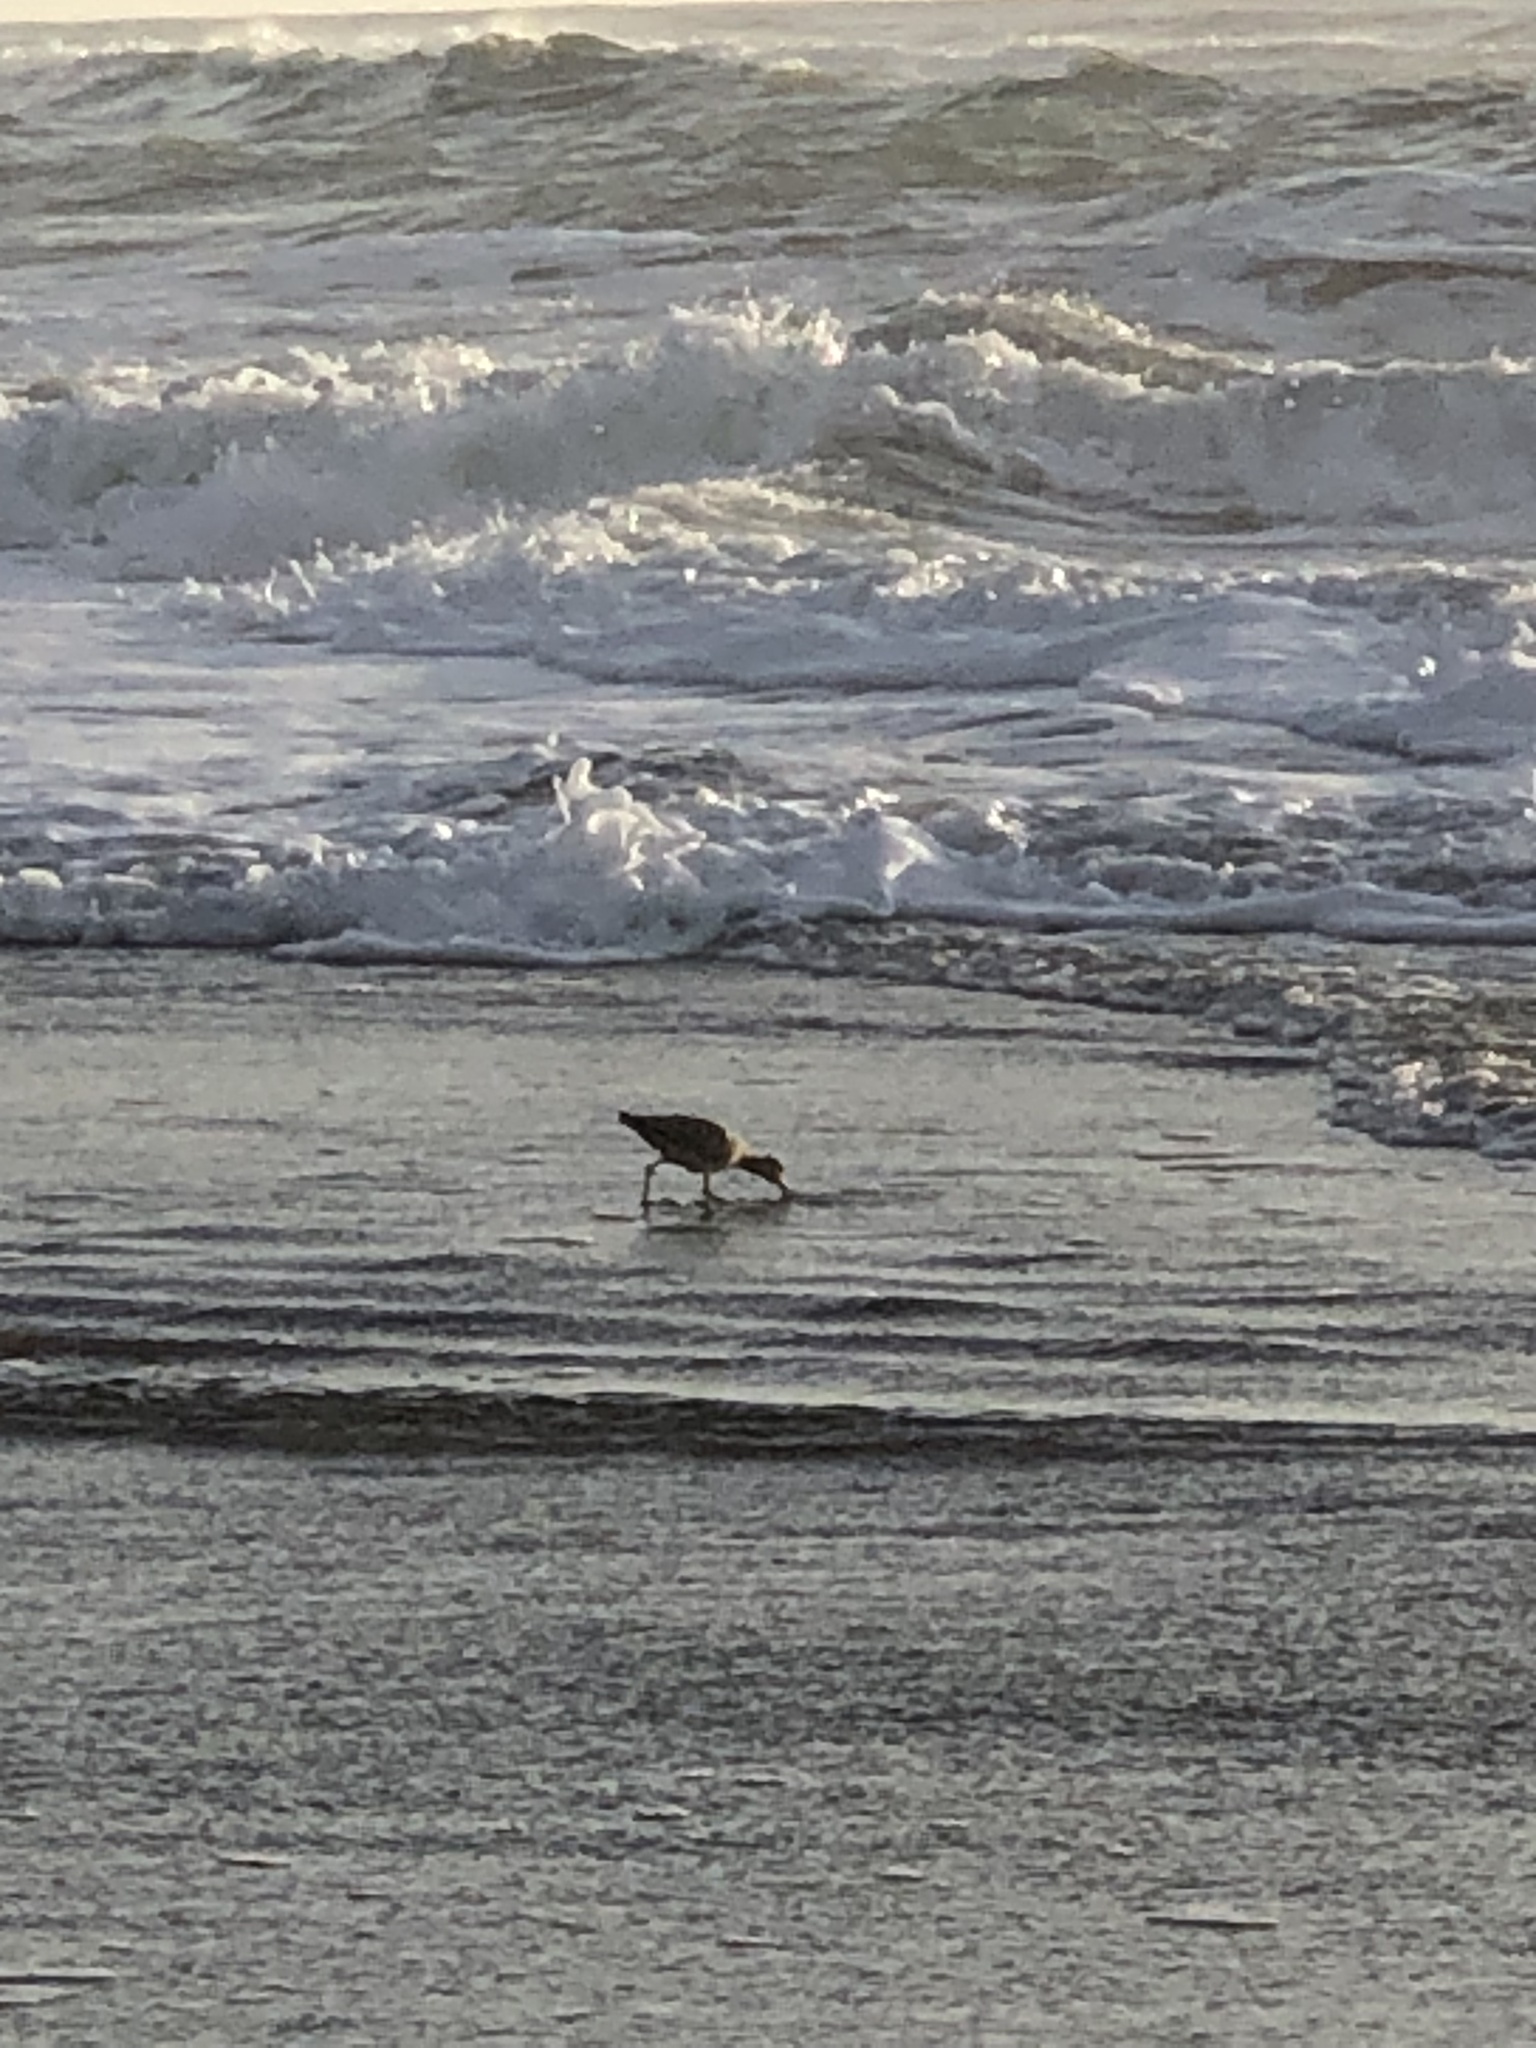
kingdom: Animalia
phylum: Chordata
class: Aves
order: Charadriiformes
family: Scolopacidae
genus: Tringa
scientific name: Tringa semipalmata
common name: Willet
